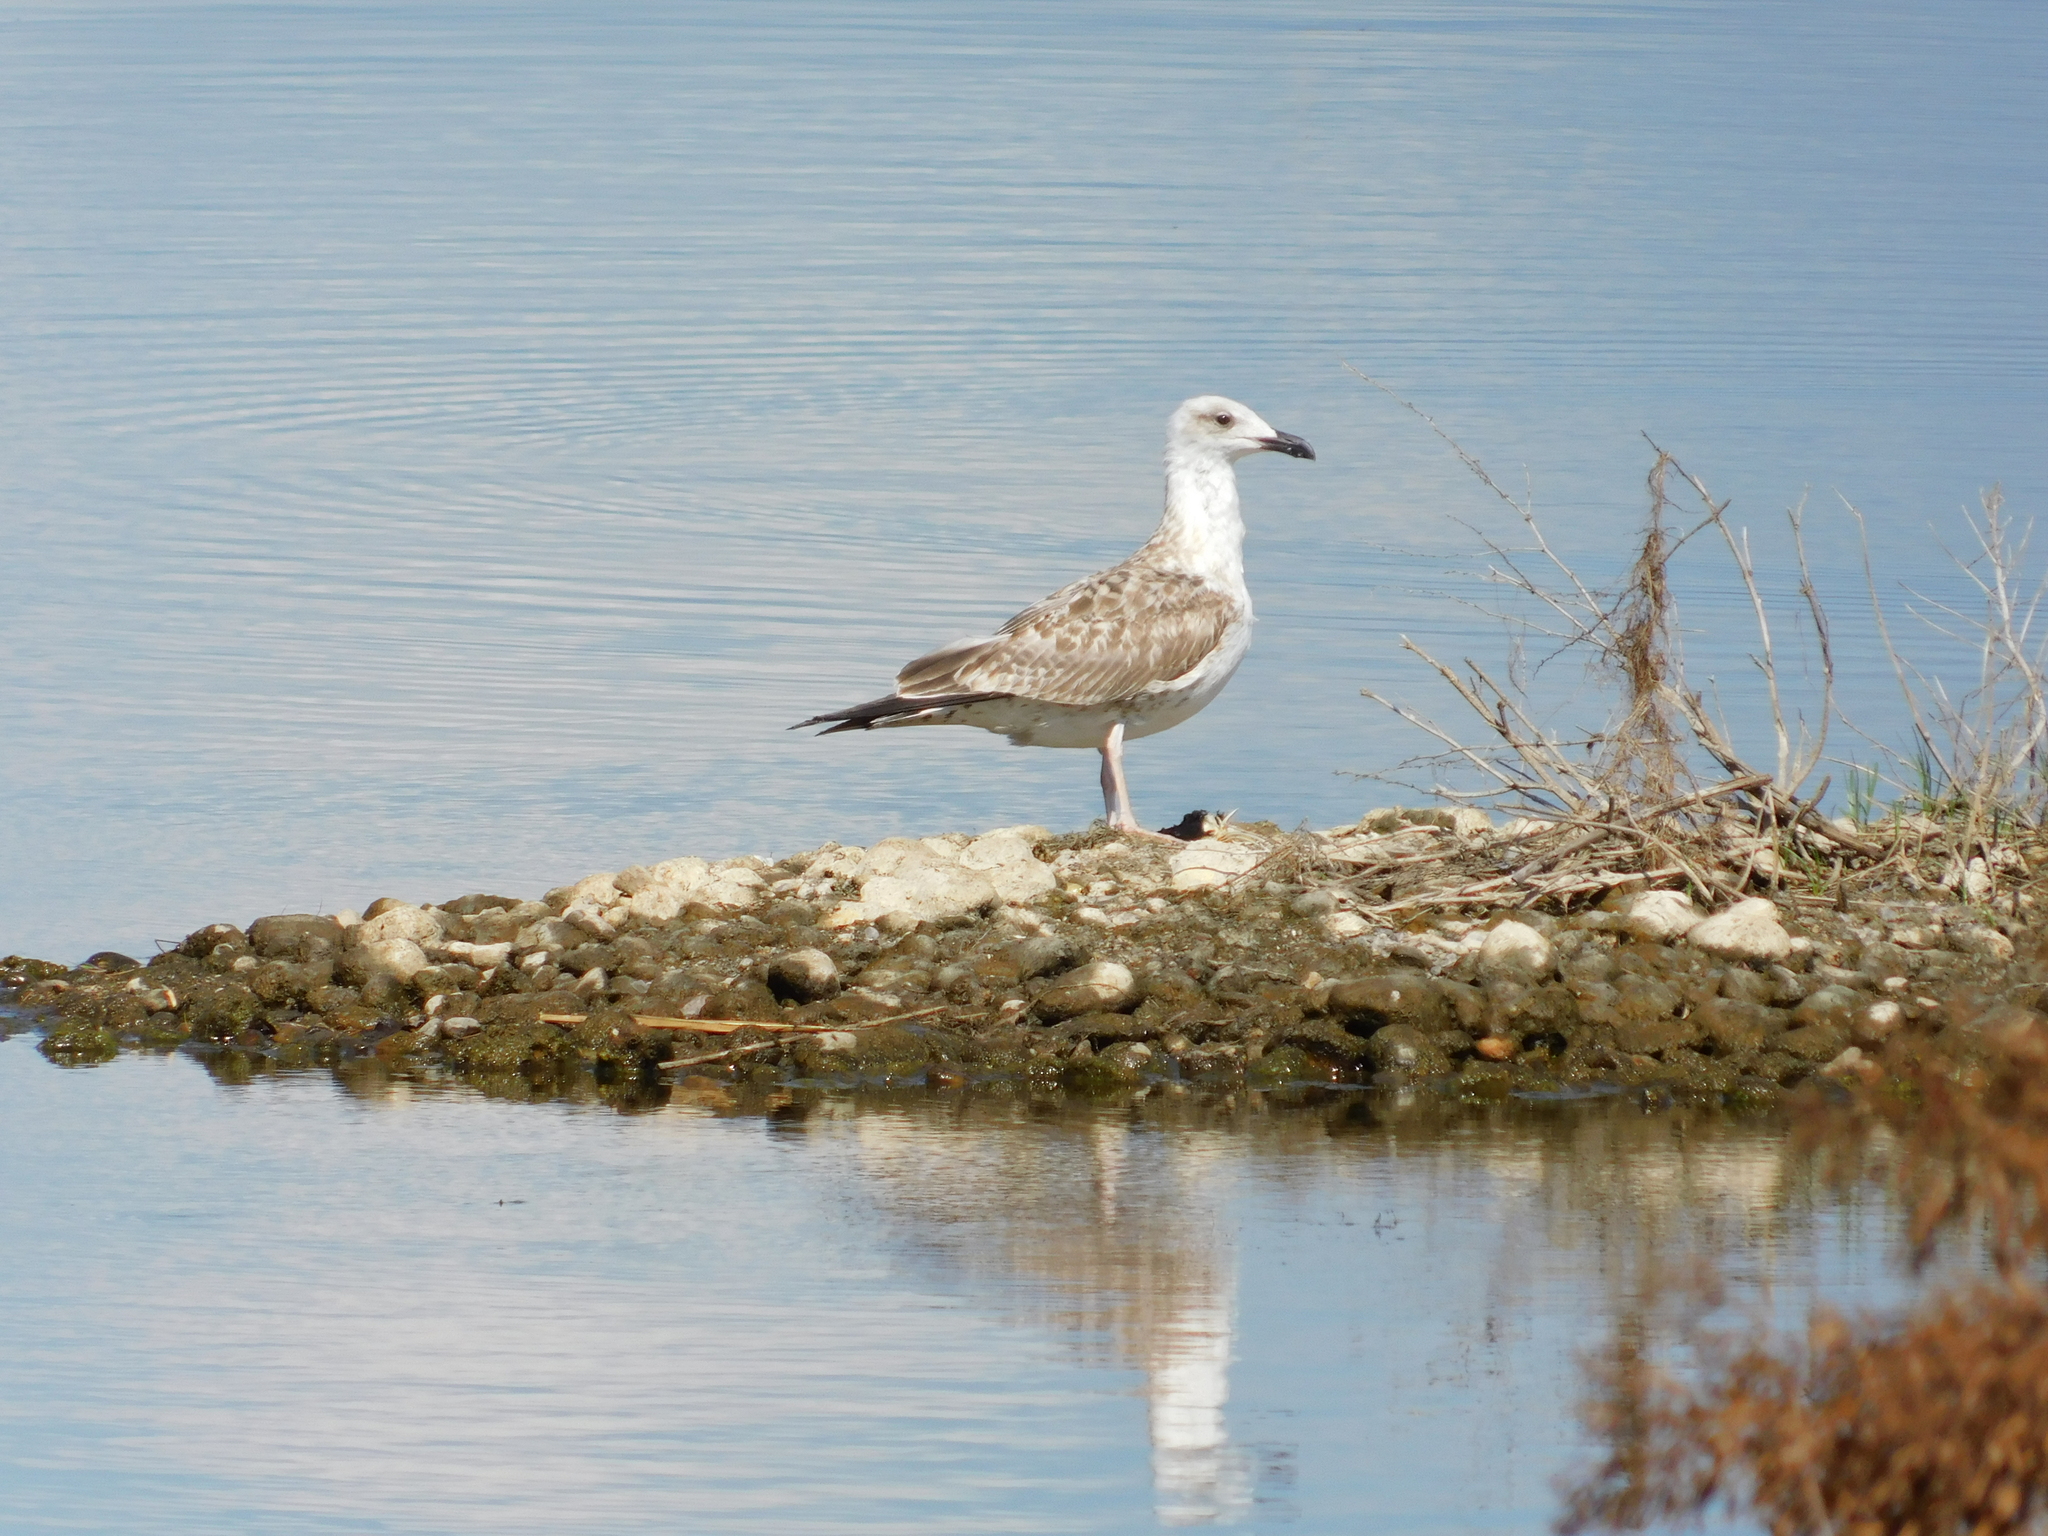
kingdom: Animalia
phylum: Chordata
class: Aves
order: Charadriiformes
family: Laridae
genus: Larus
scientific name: Larus michahellis
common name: Yellow-legged gull
